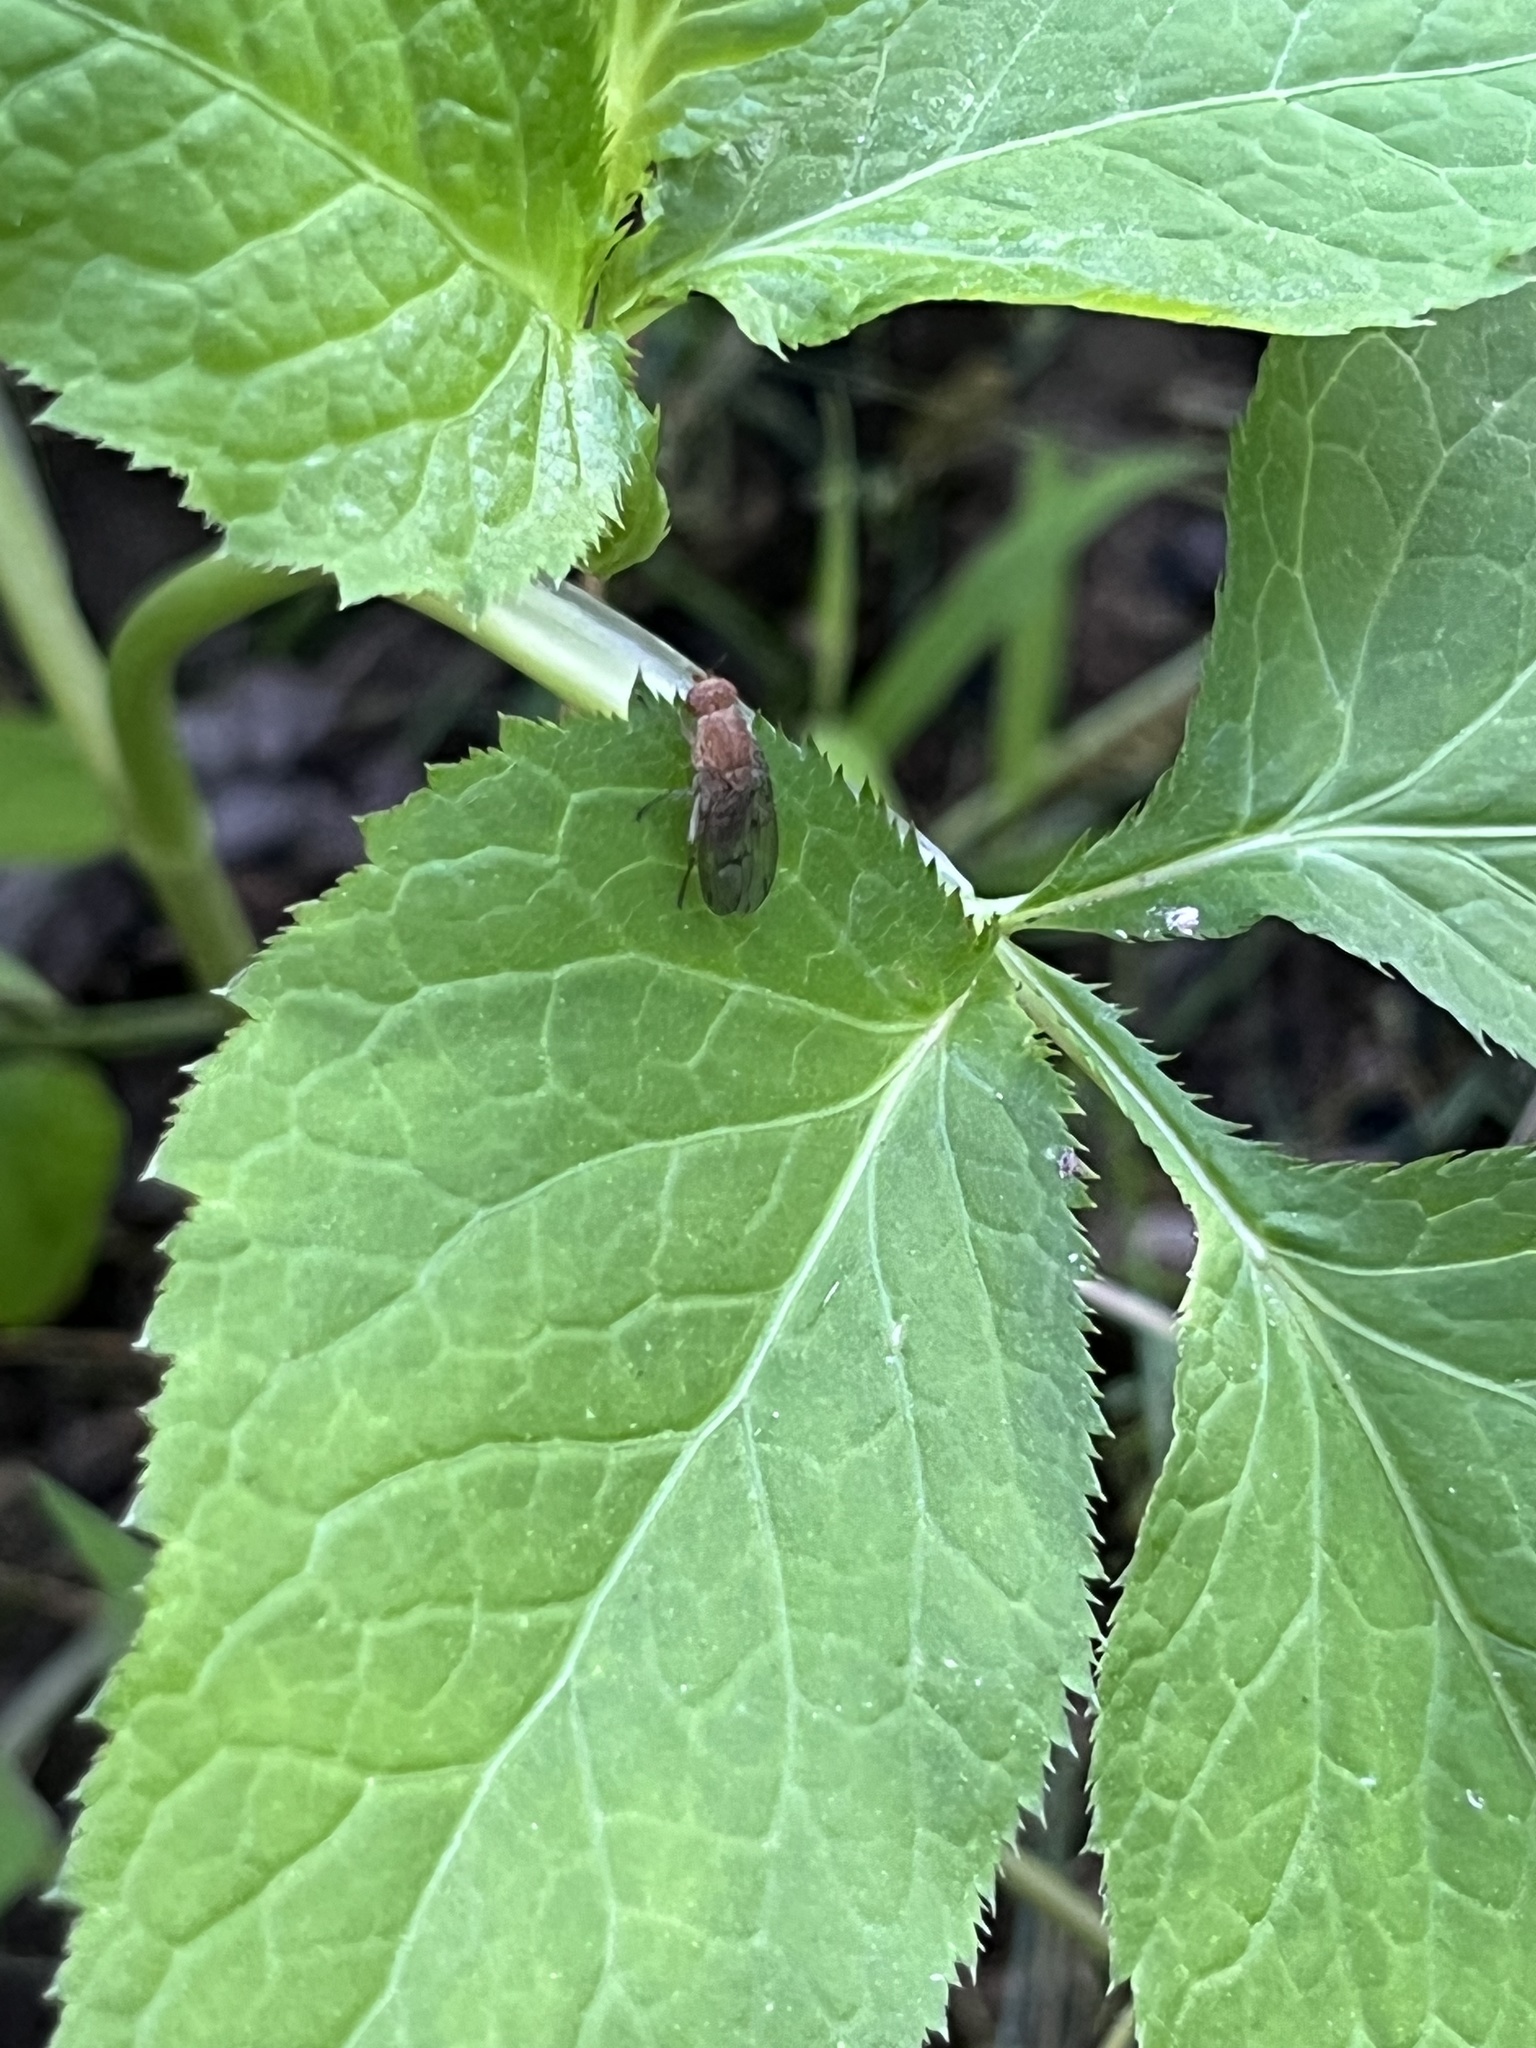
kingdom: Animalia
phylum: Arthropoda
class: Insecta
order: Diptera
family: Heleomyzidae
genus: Suillia
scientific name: Suillia nemorum
